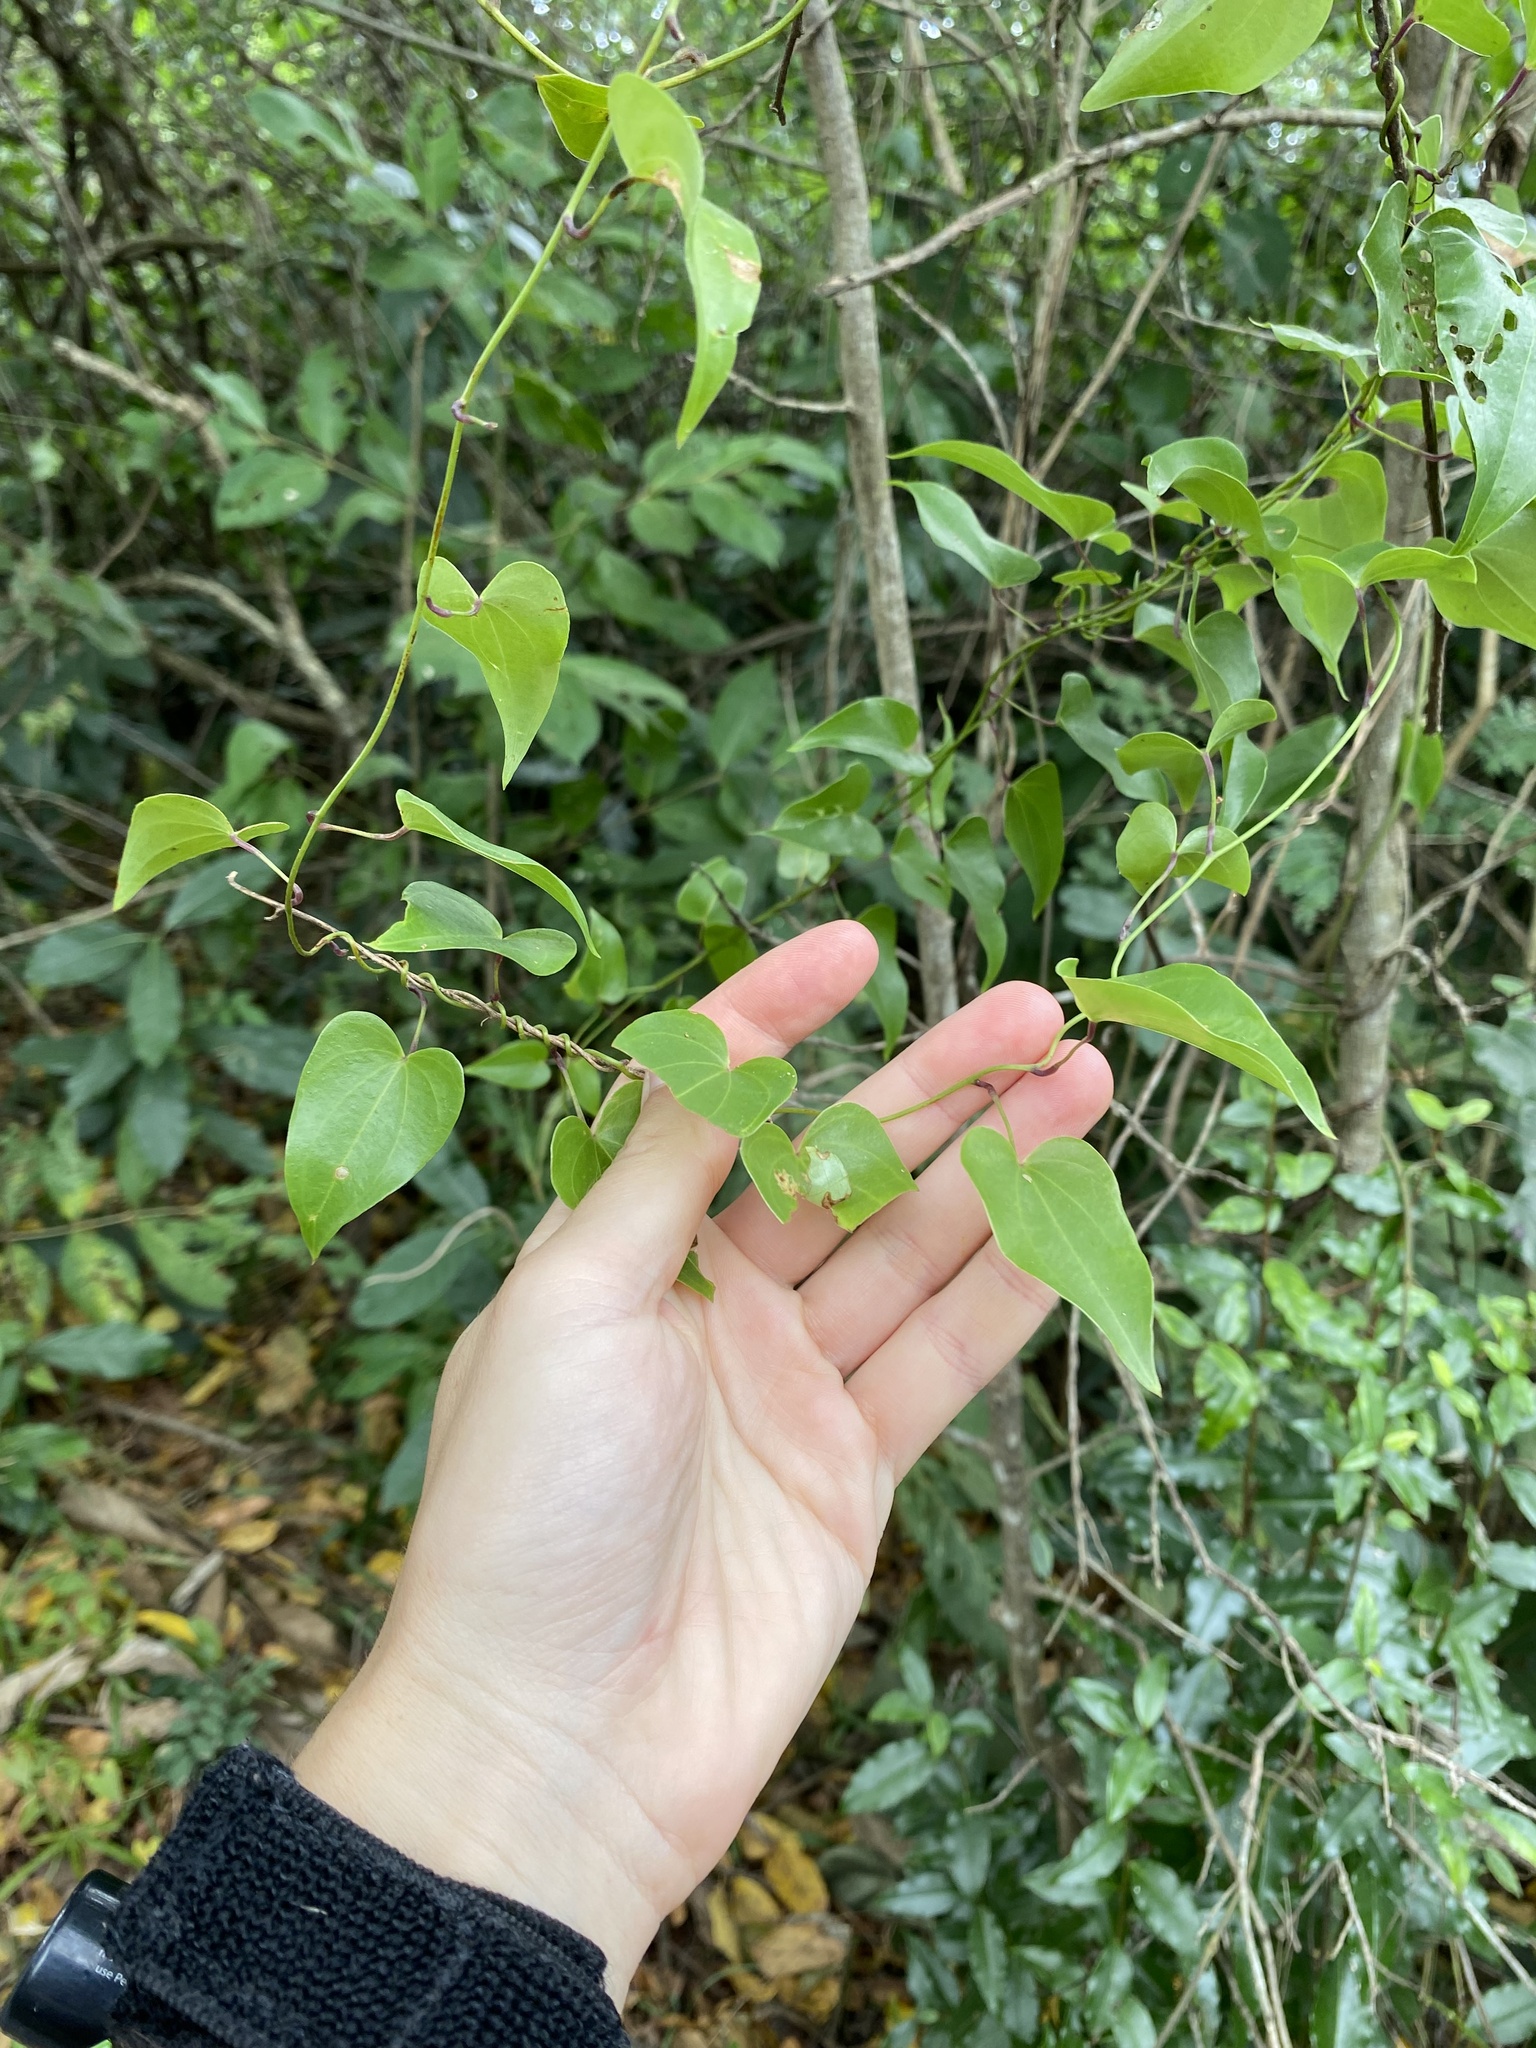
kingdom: Plantae
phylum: Tracheophyta
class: Liliopsida
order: Dioscoreales
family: Dioscoreaceae
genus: Dioscorea
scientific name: Dioscorea cotinifolia
